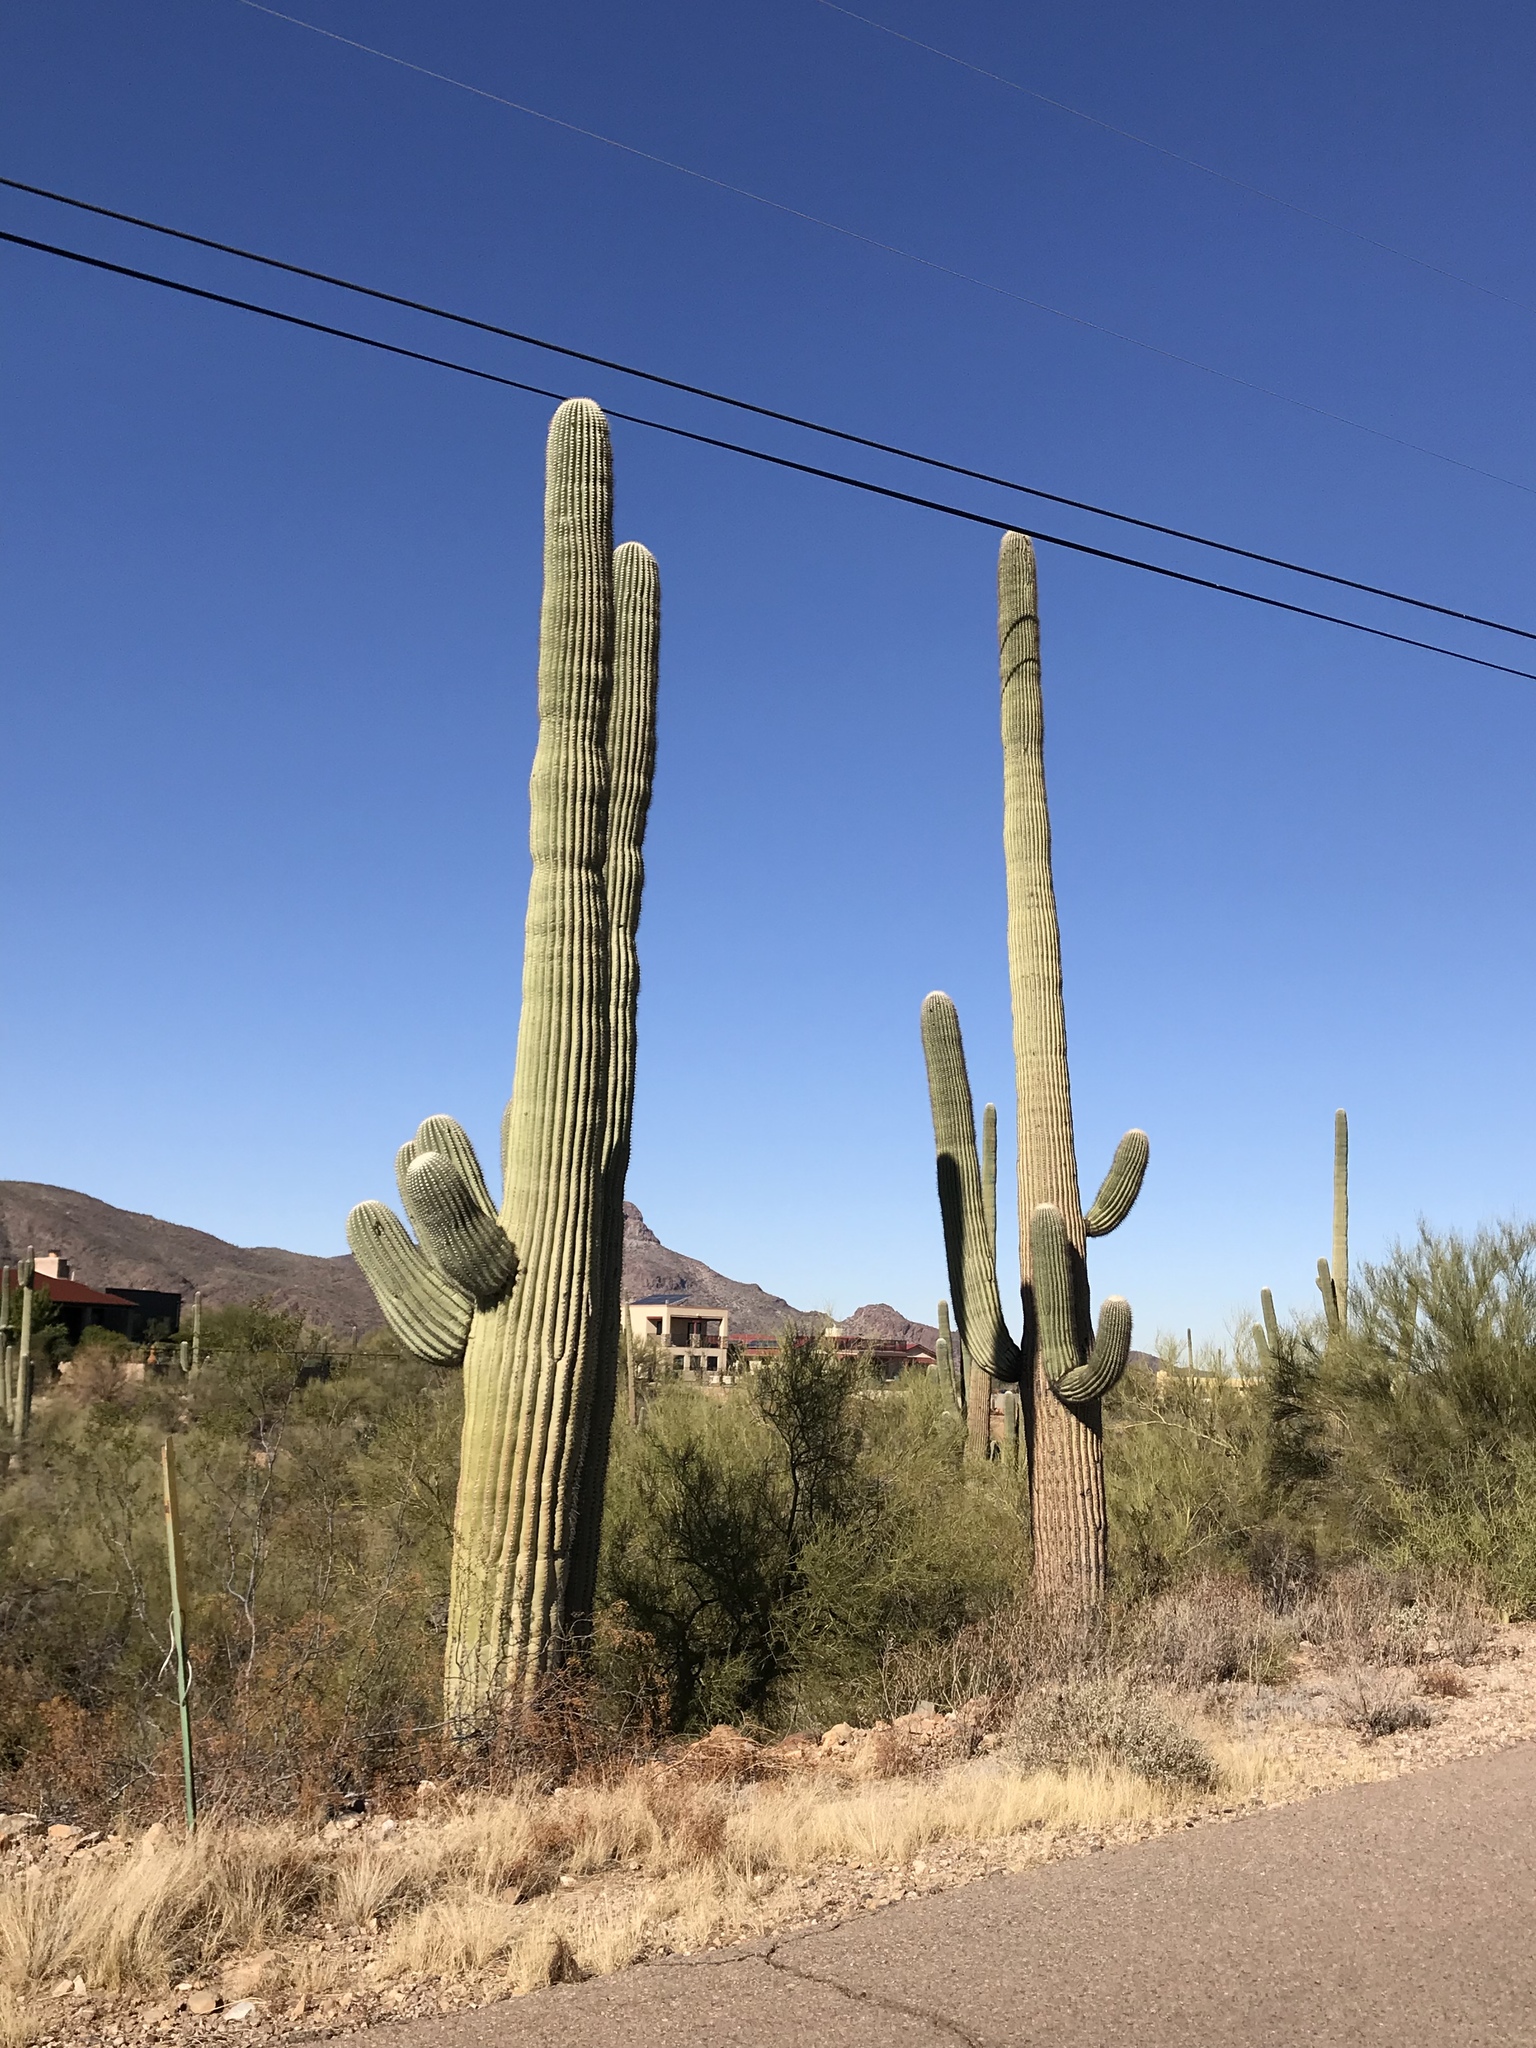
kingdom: Plantae
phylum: Tracheophyta
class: Magnoliopsida
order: Caryophyllales
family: Cactaceae
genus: Carnegiea
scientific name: Carnegiea gigantea
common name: Saguaro
